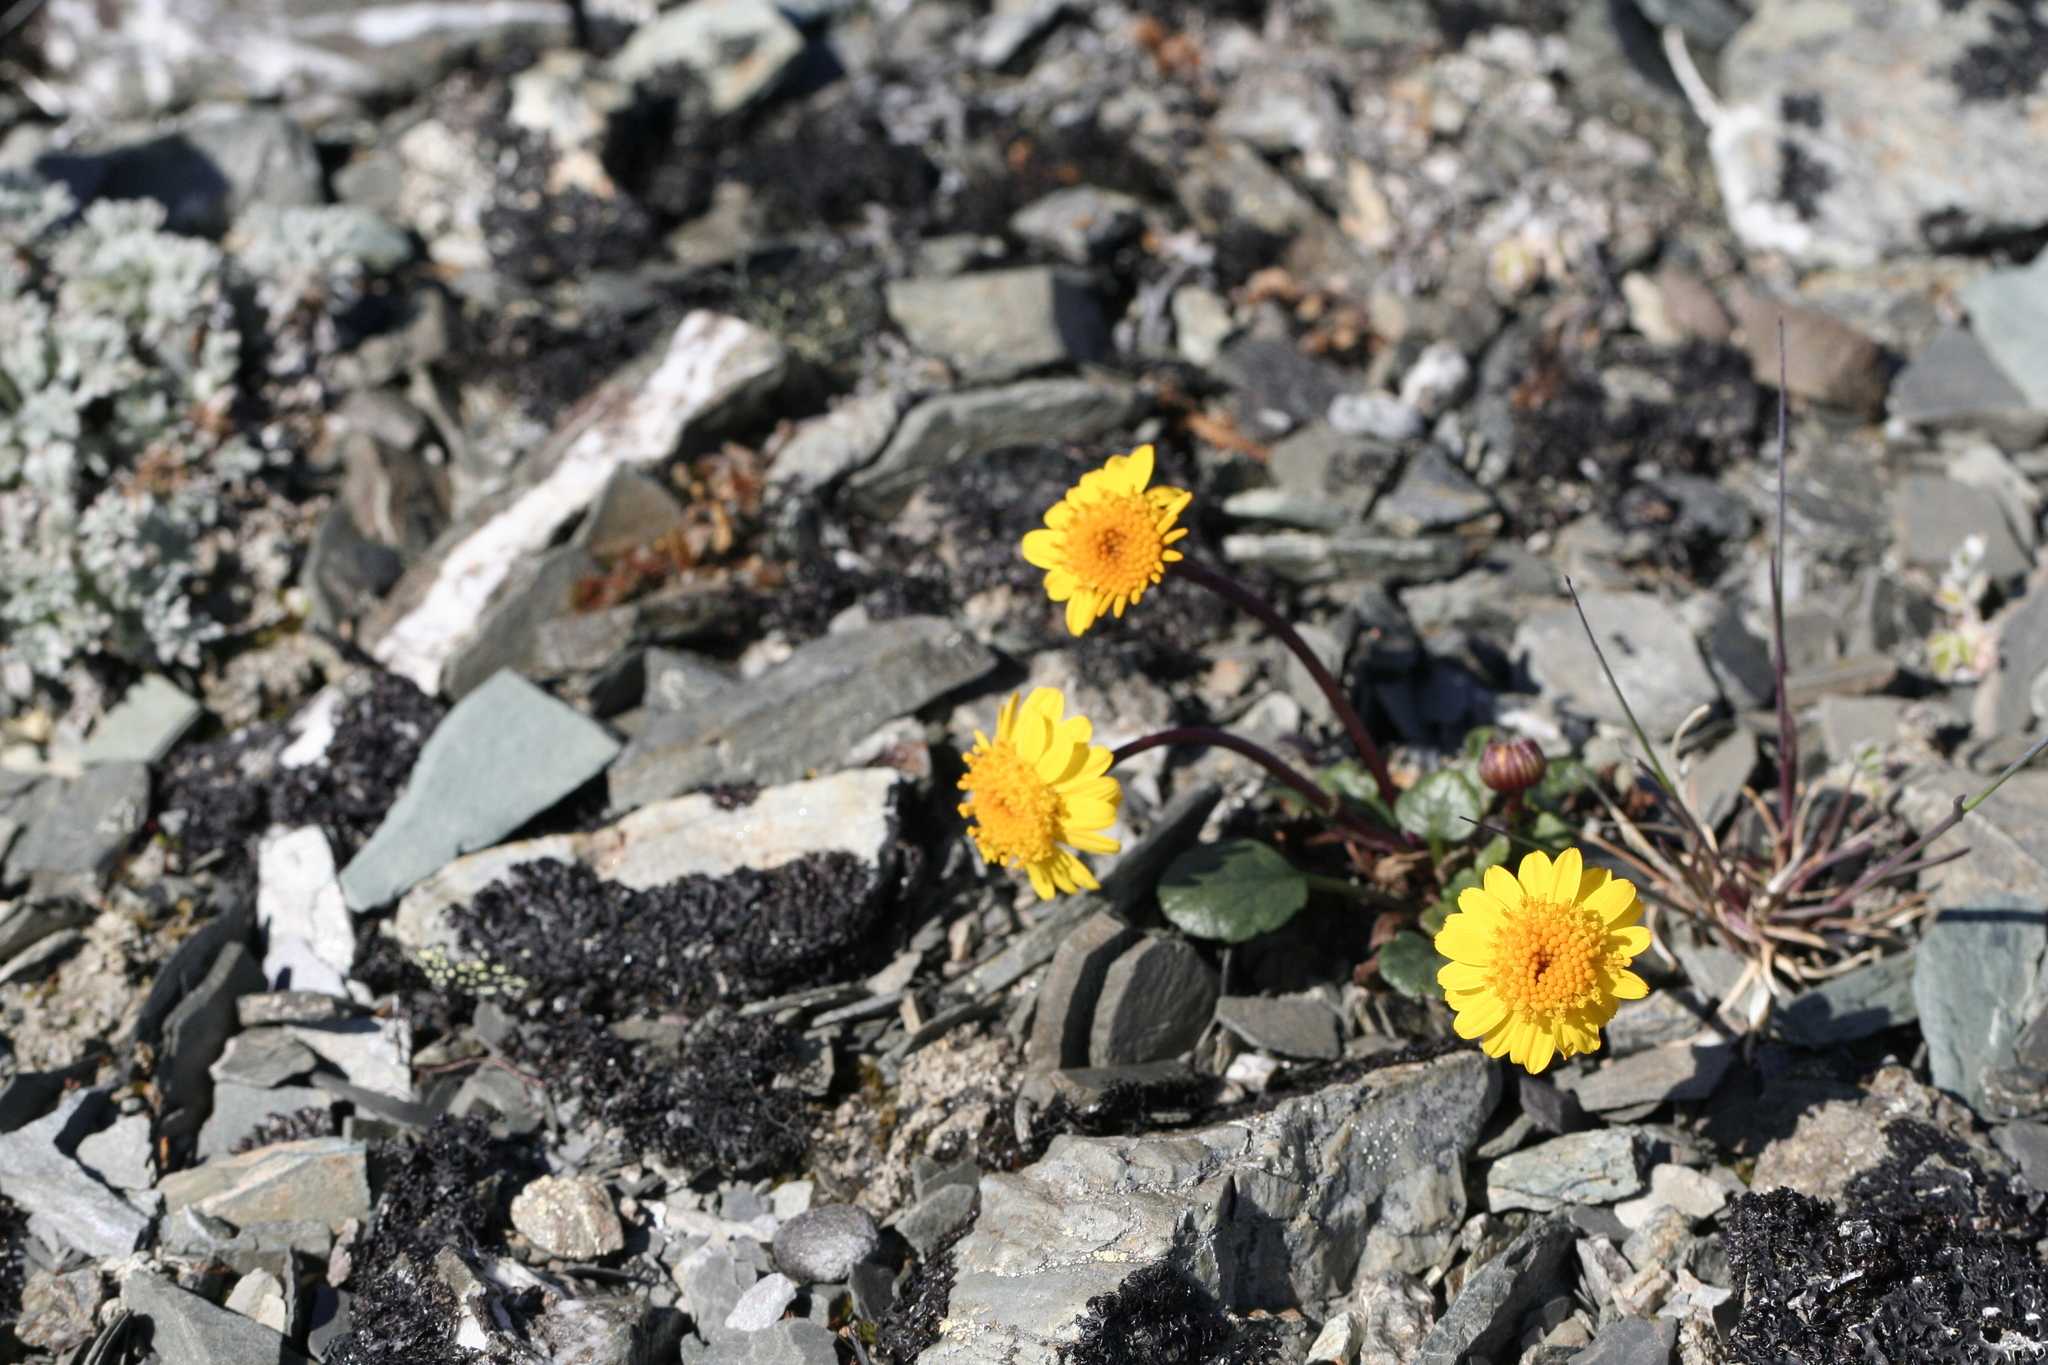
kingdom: Plantae
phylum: Tracheophyta
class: Magnoliopsida
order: Asterales
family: Asteraceae
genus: Packera
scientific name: Packera cymbalaria
